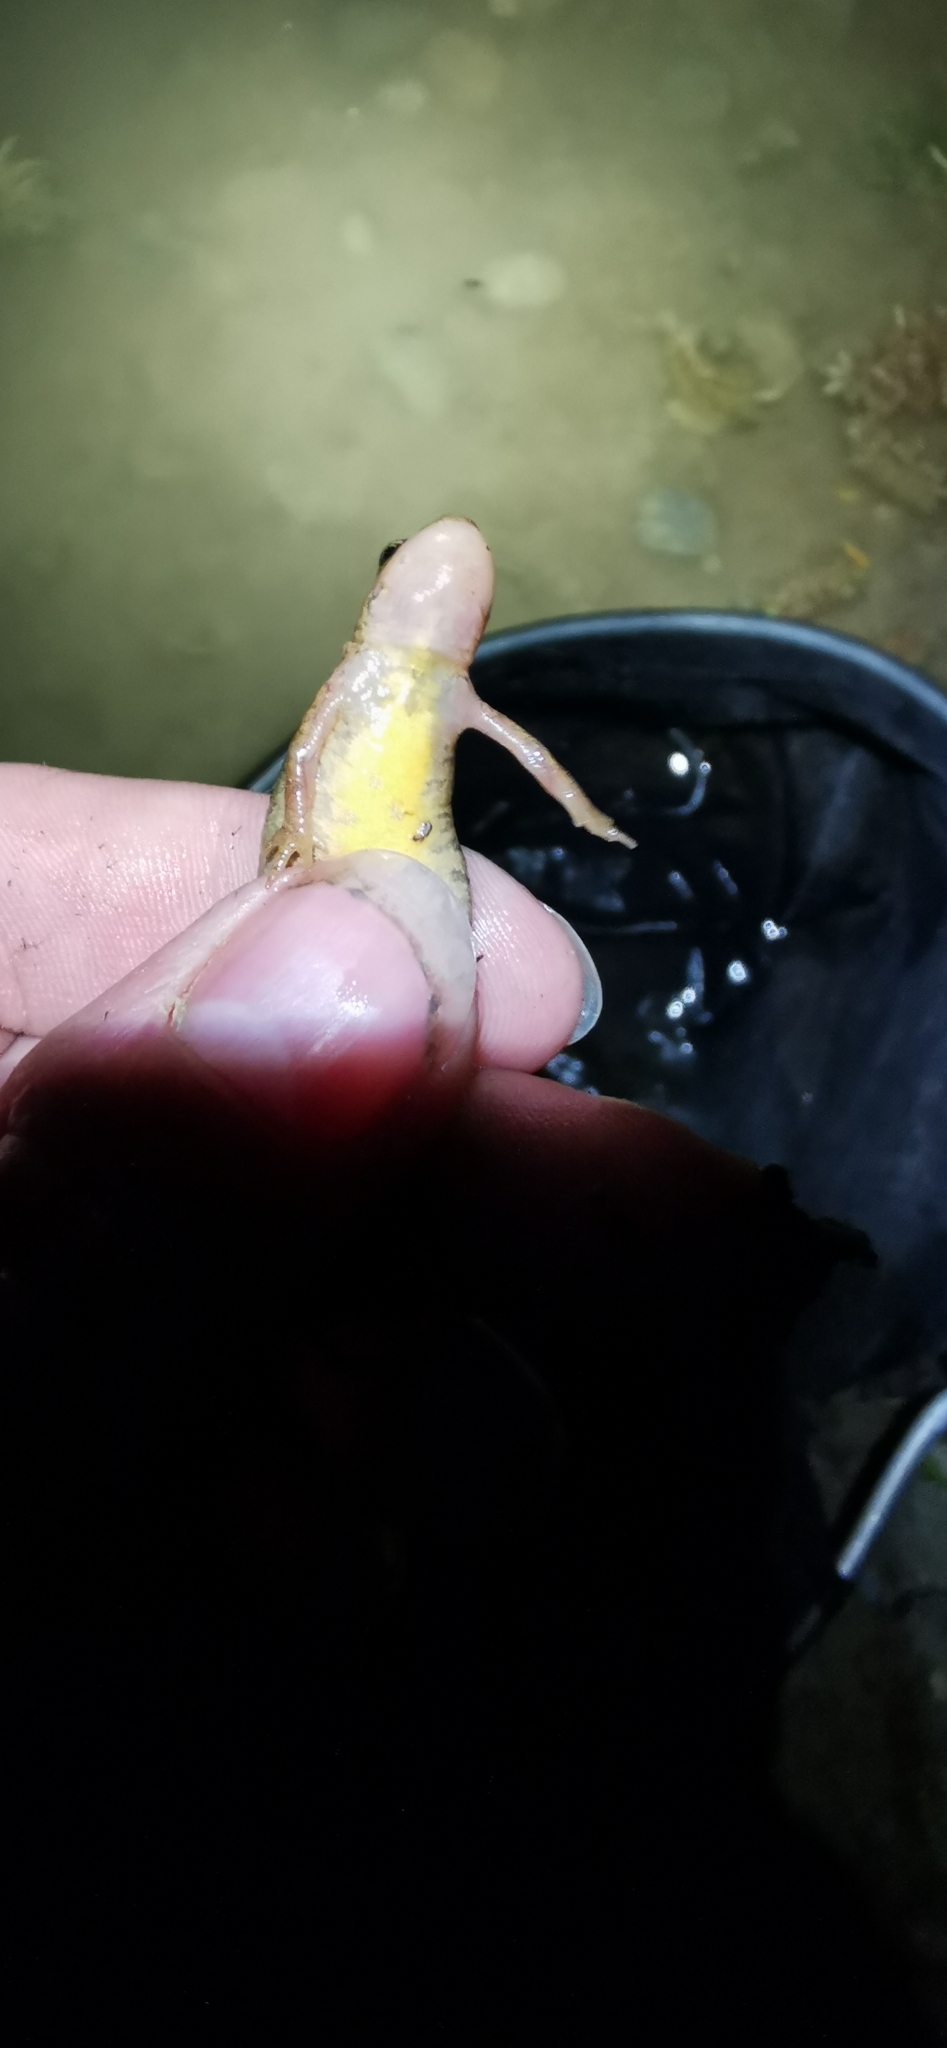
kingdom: Animalia
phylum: Chordata
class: Amphibia
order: Caudata
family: Salamandridae
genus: Lissotriton
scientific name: Lissotriton helveticus
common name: Palmate newt
